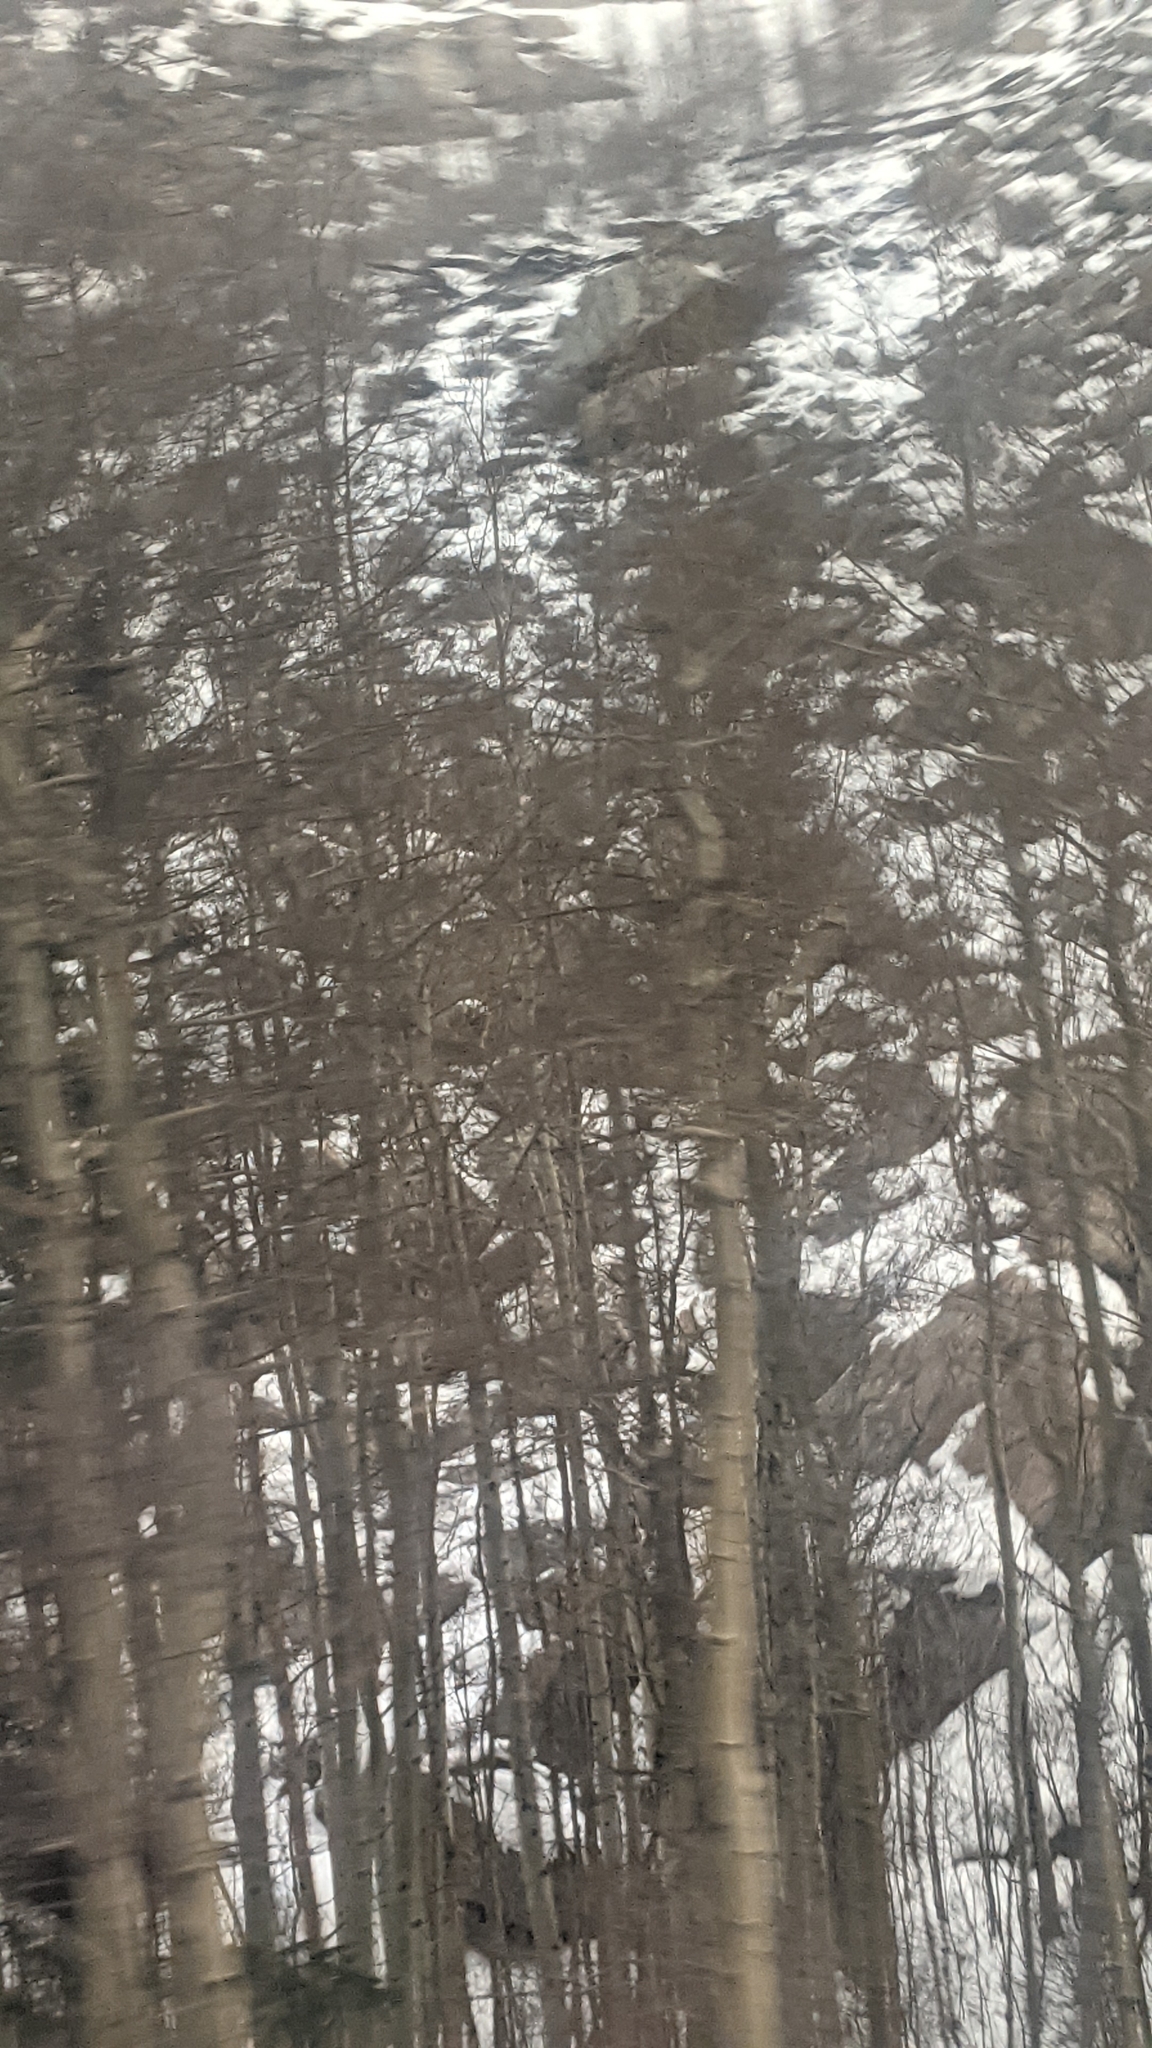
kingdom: Plantae
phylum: Tracheophyta
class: Magnoliopsida
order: Malpighiales
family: Salicaceae
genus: Populus
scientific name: Populus tremuloides
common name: Quaking aspen
